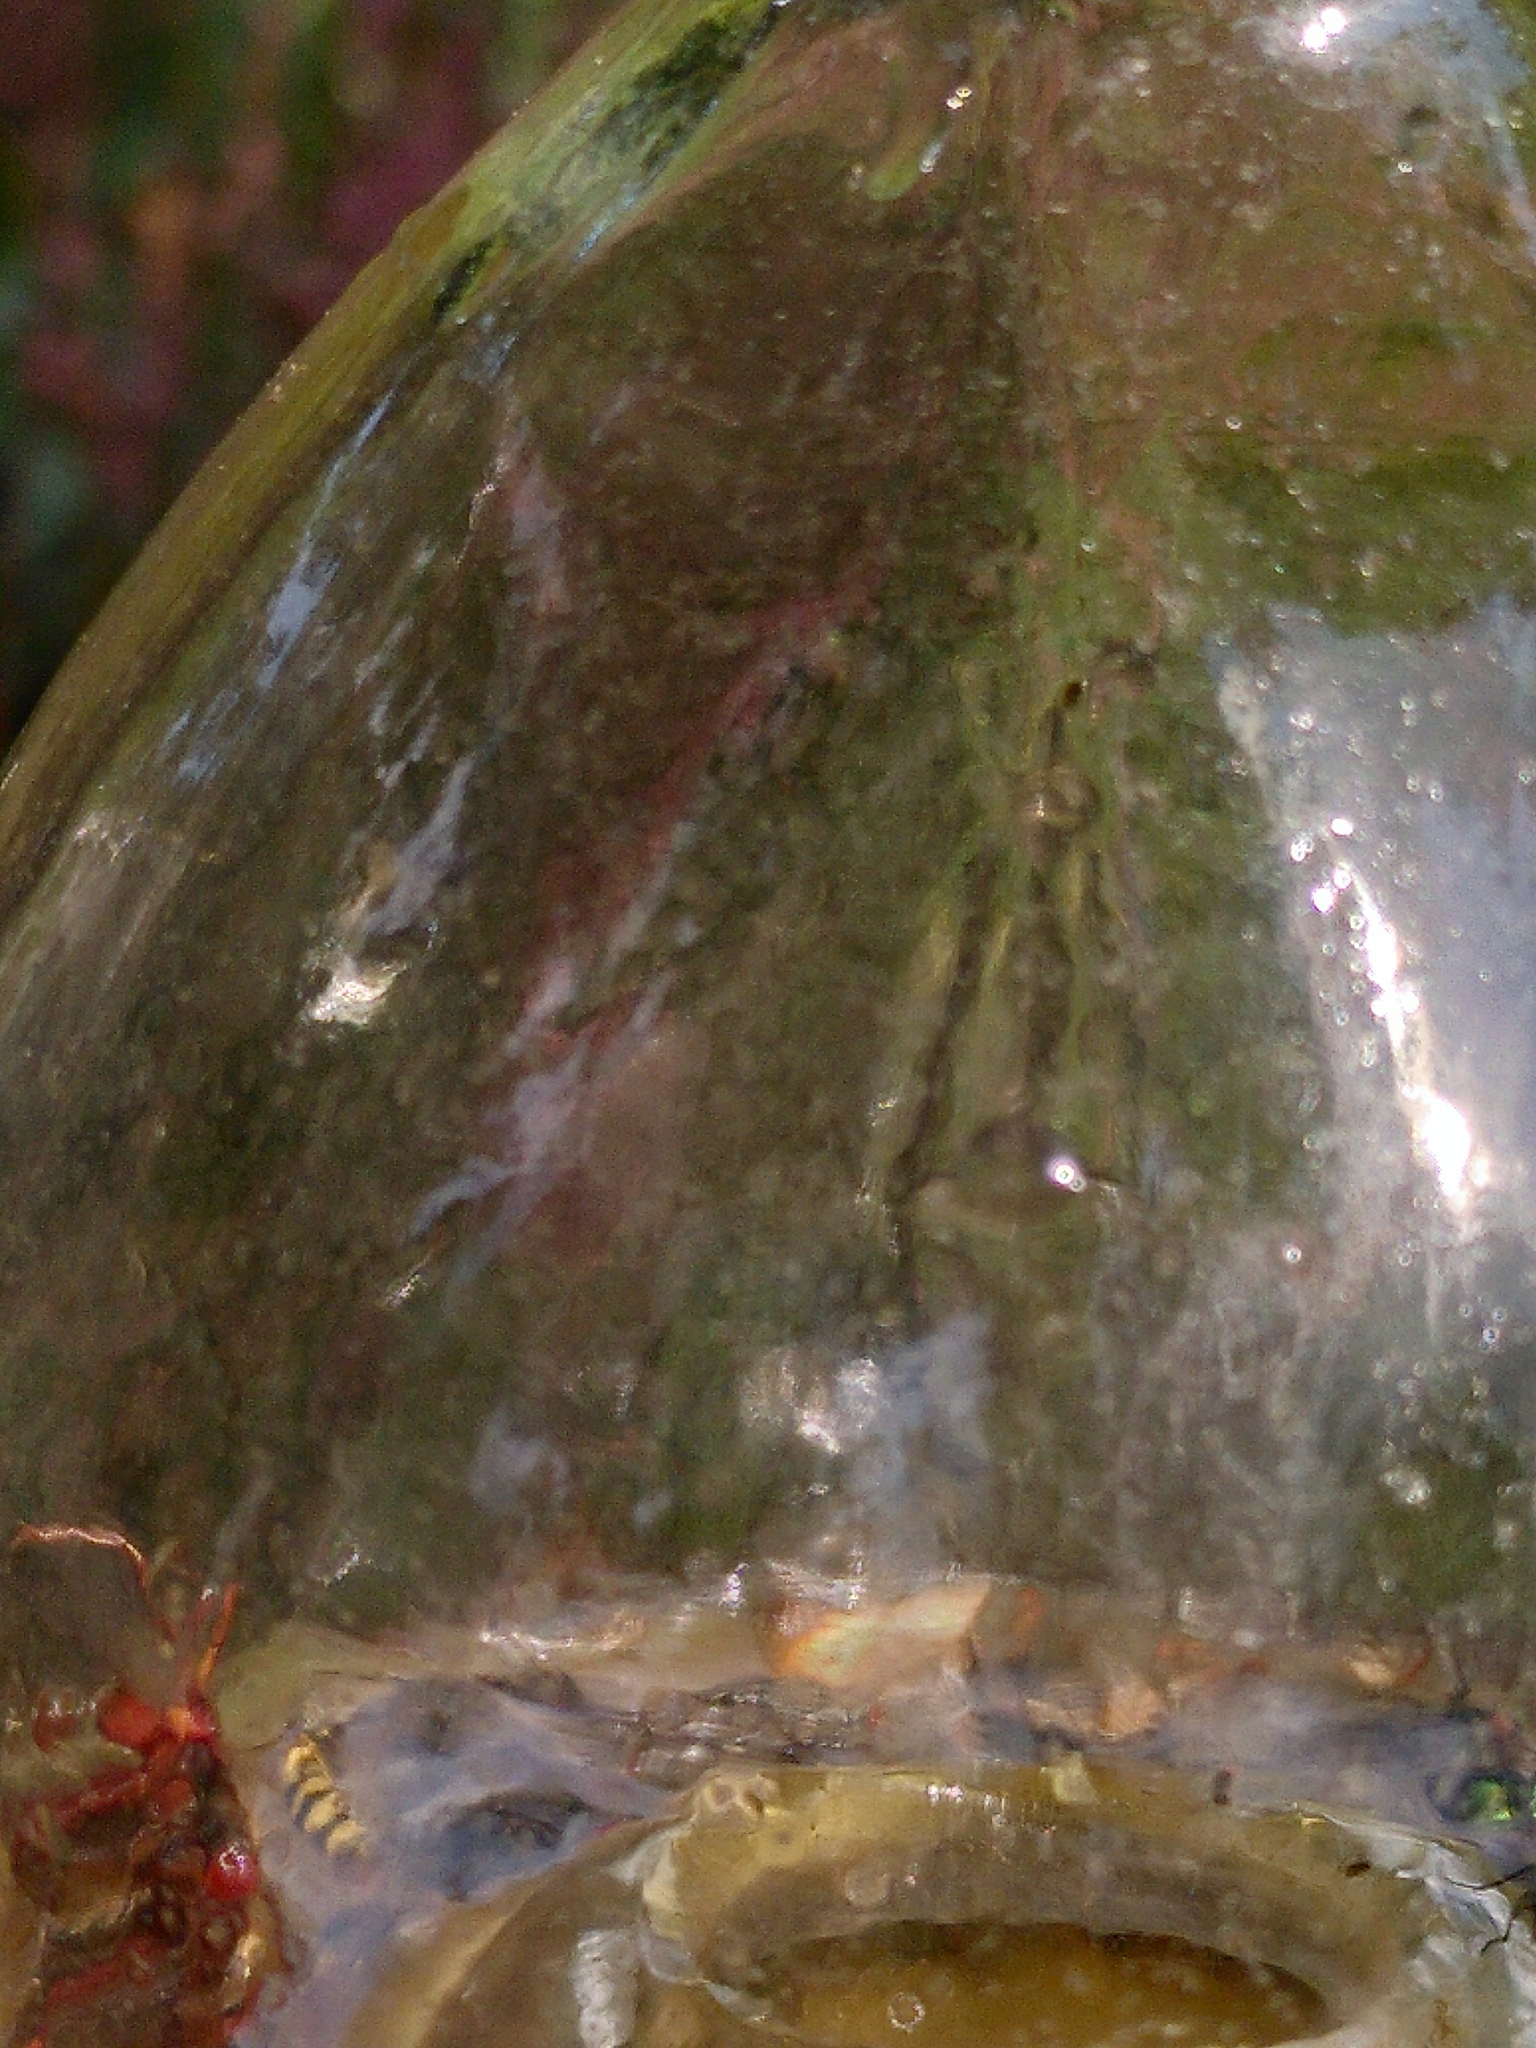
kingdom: Animalia
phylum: Arthropoda
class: Insecta
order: Hymenoptera
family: Vespidae
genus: Vespa
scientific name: Vespa crabro
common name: Hornet
